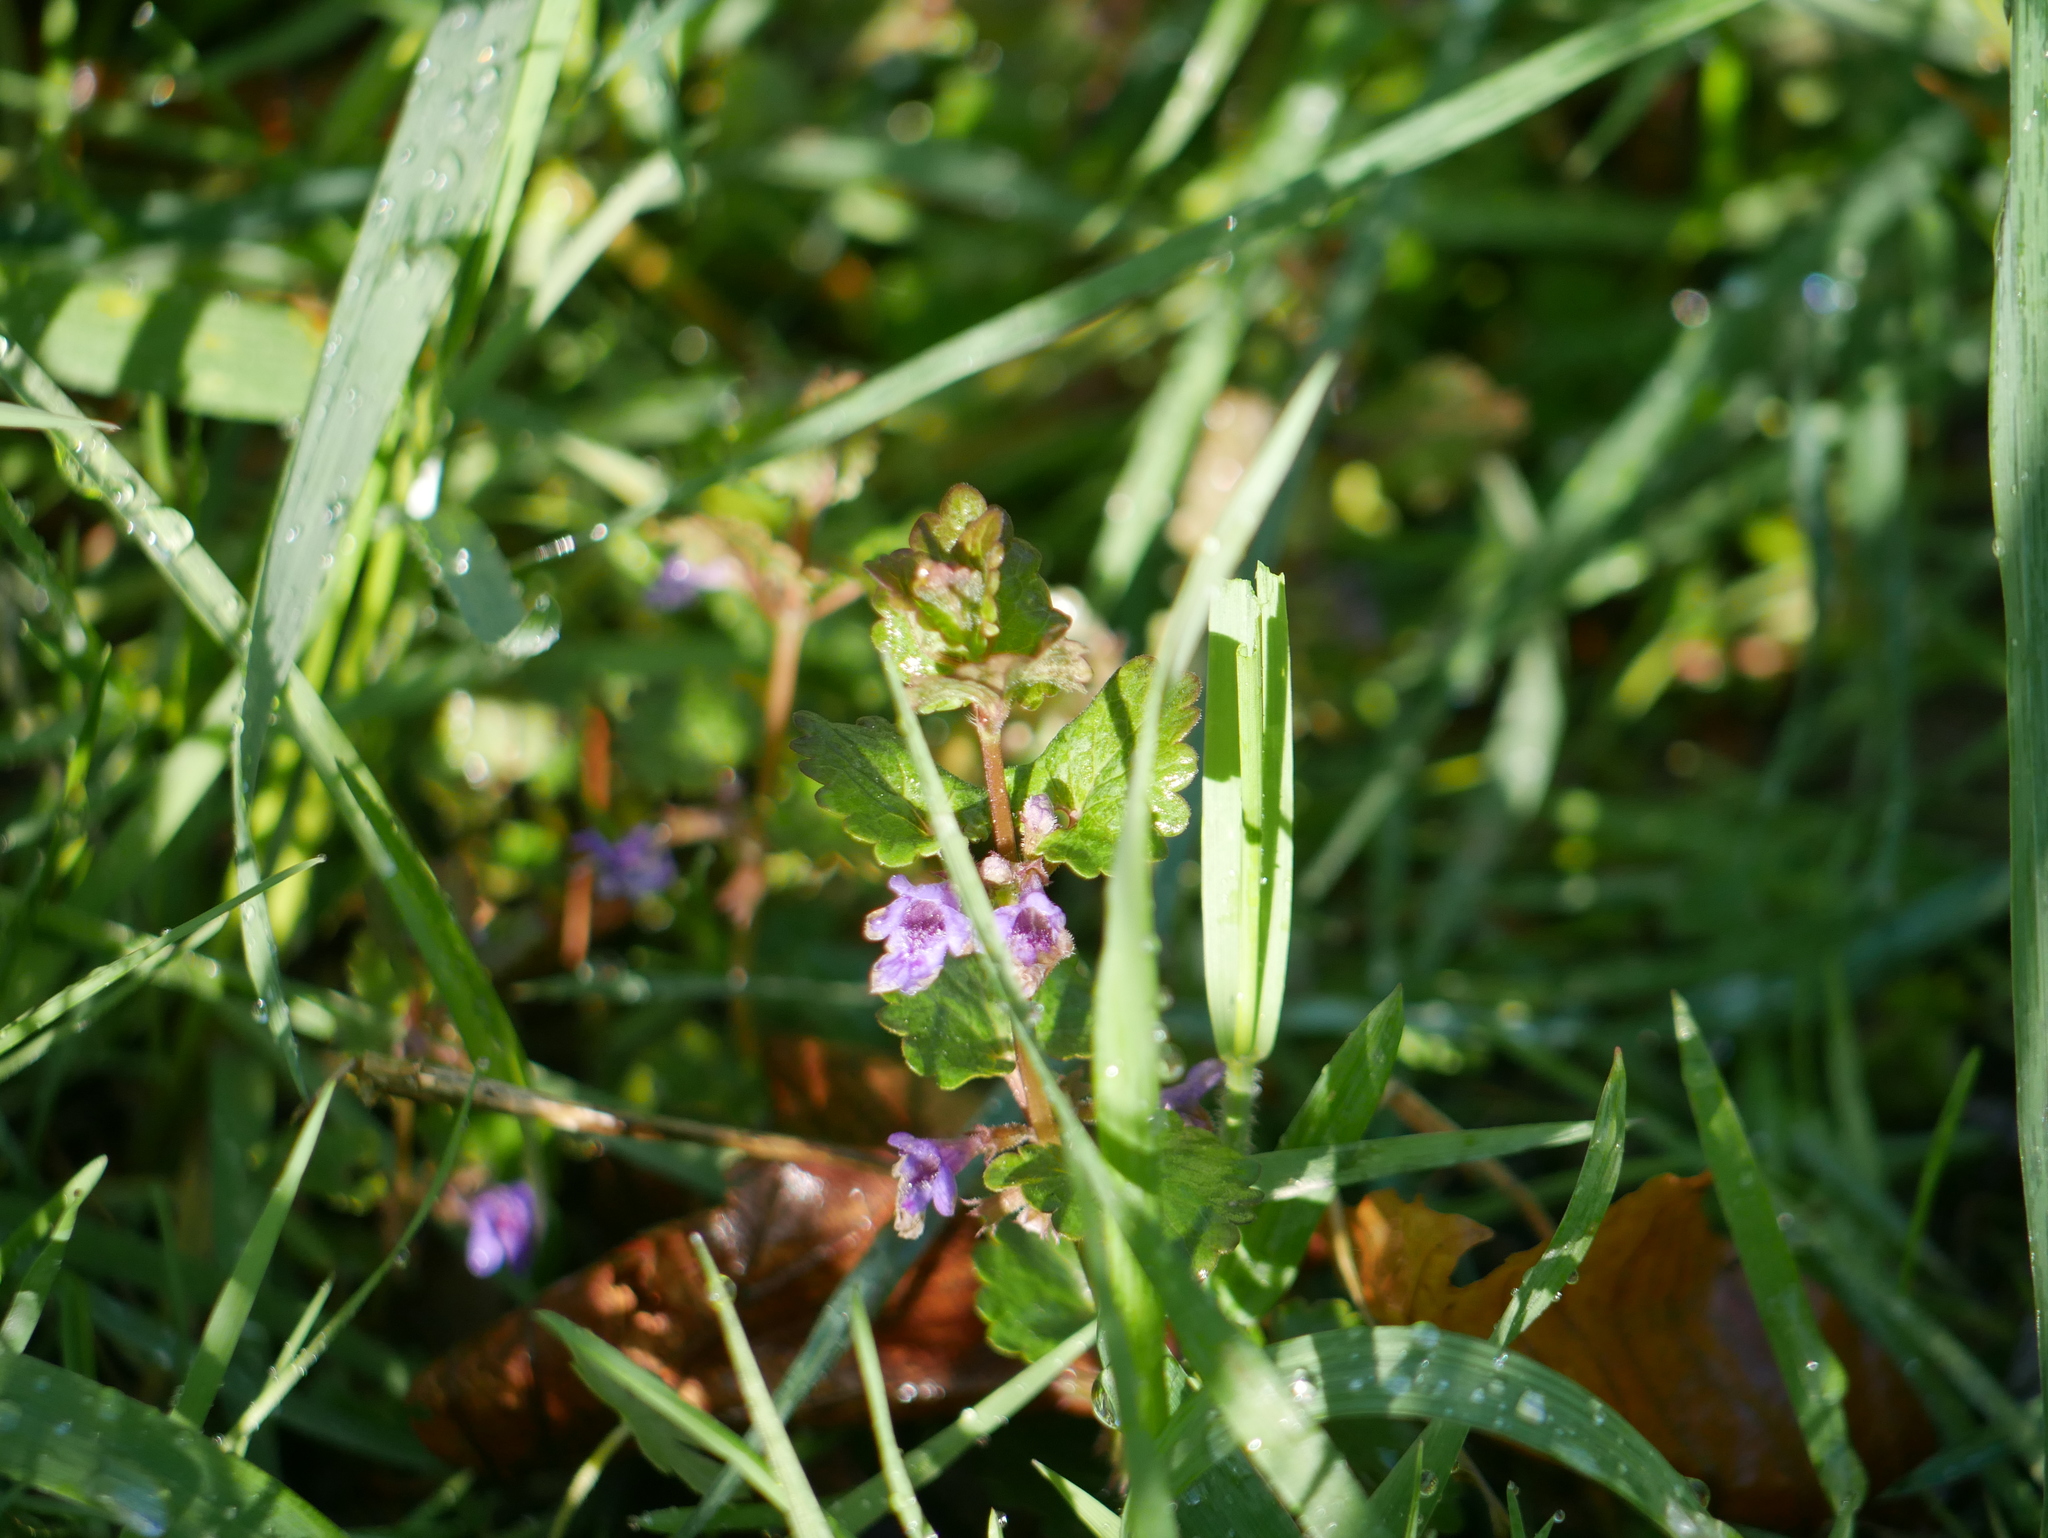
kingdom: Plantae
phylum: Tracheophyta
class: Magnoliopsida
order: Lamiales
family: Lamiaceae
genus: Glechoma
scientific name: Glechoma hederacea
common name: Ground ivy
